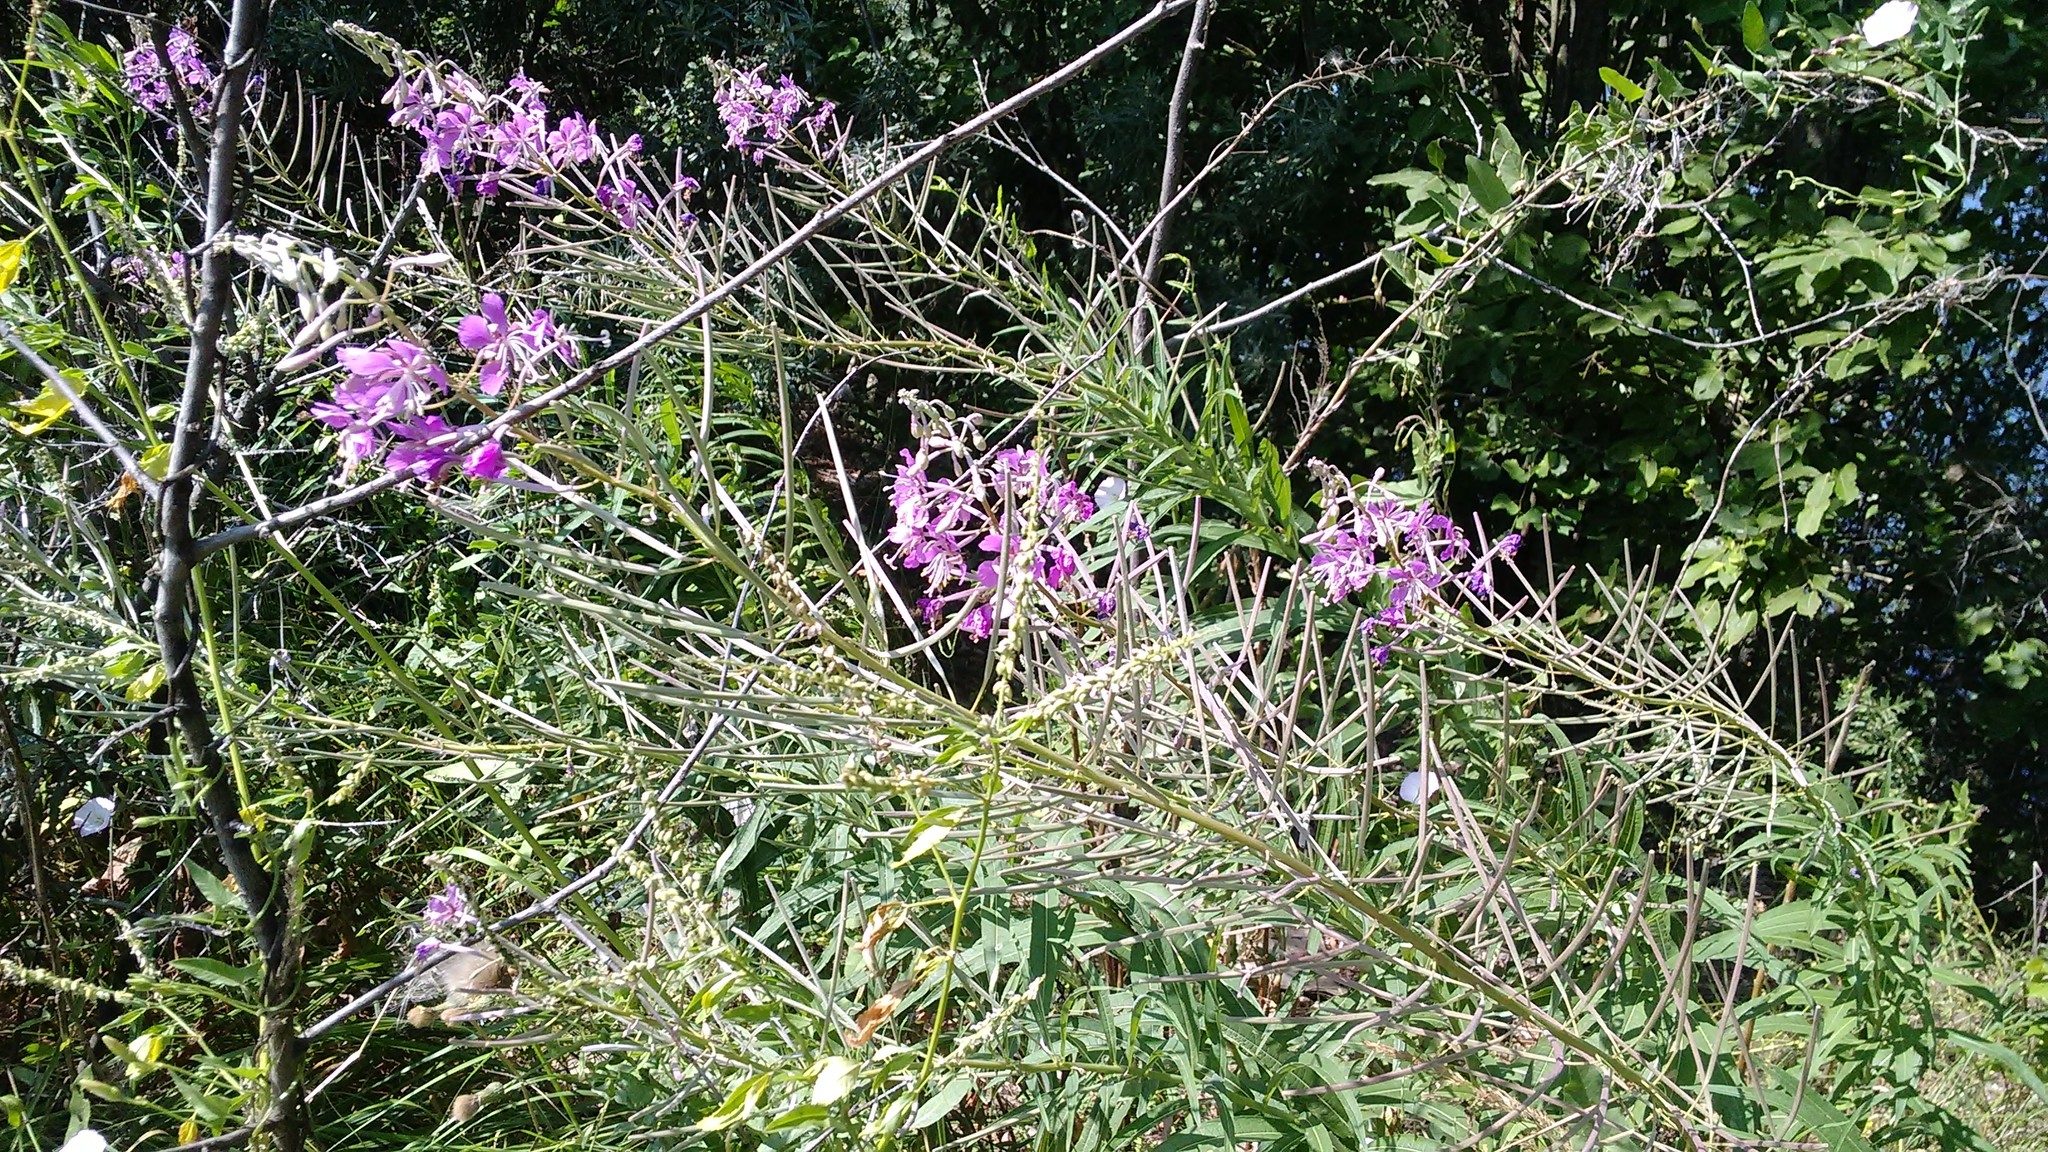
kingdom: Plantae
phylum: Tracheophyta
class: Magnoliopsida
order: Myrtales
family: Onagraceae
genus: Chamaenerion
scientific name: Chamaenerion angustifolium
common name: Fireweed
